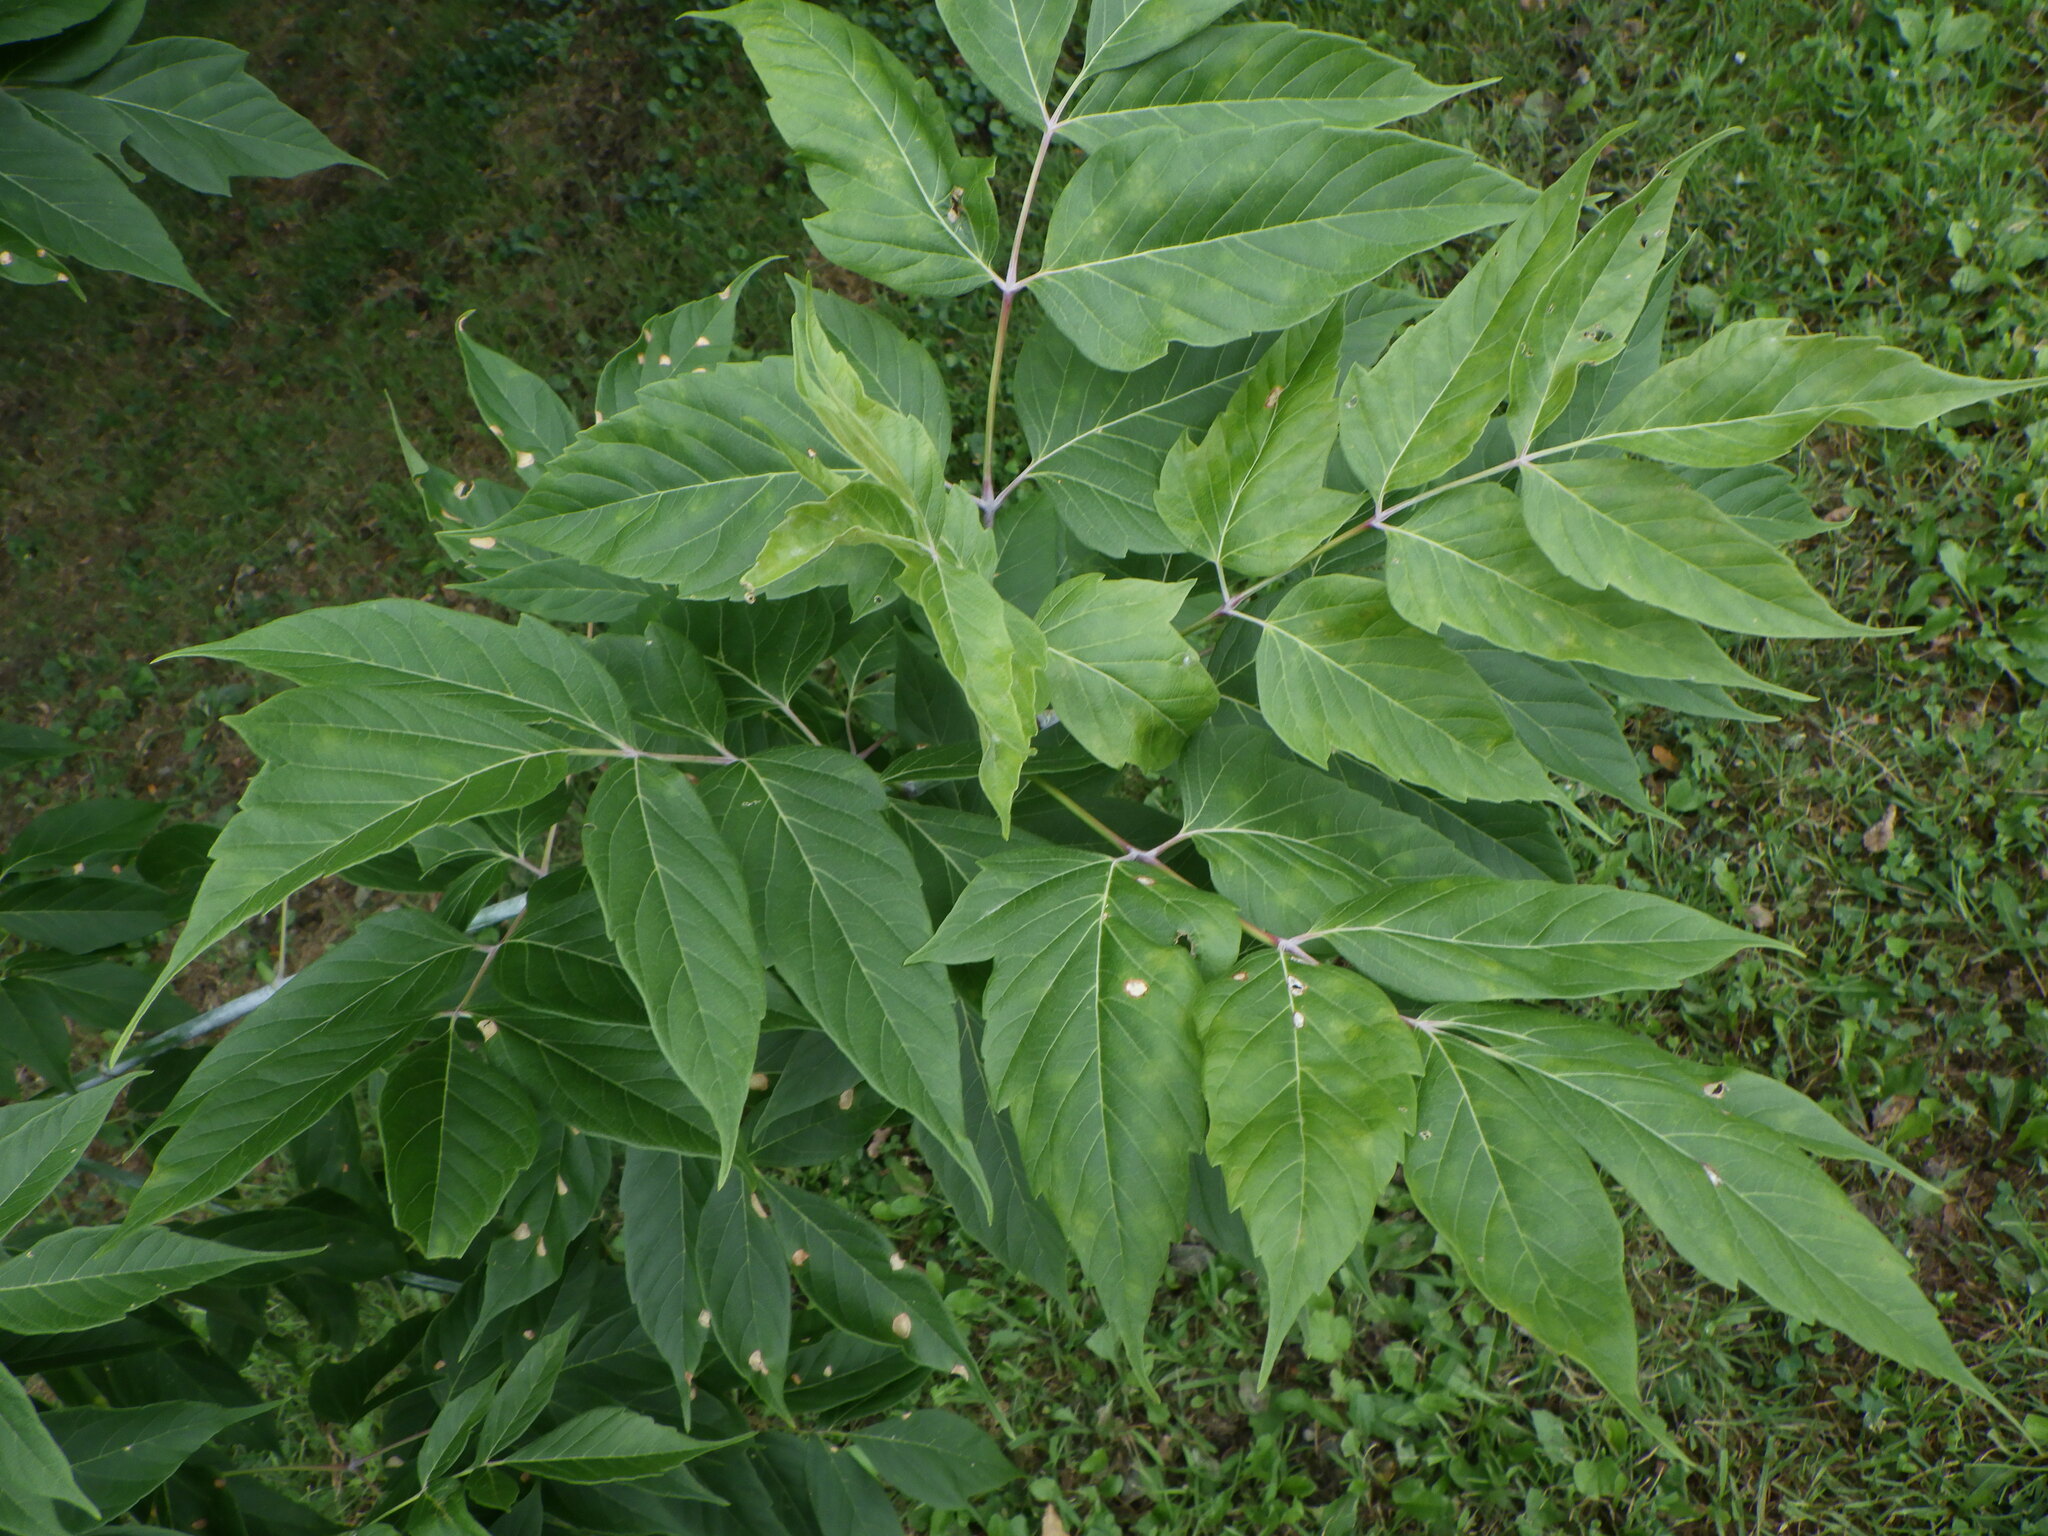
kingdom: Plantae
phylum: Tracheophyta
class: Magnoliopsida
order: Sapindales
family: Sapindaceae
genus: Acer
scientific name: Acer negundo
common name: Ashleaf maple
